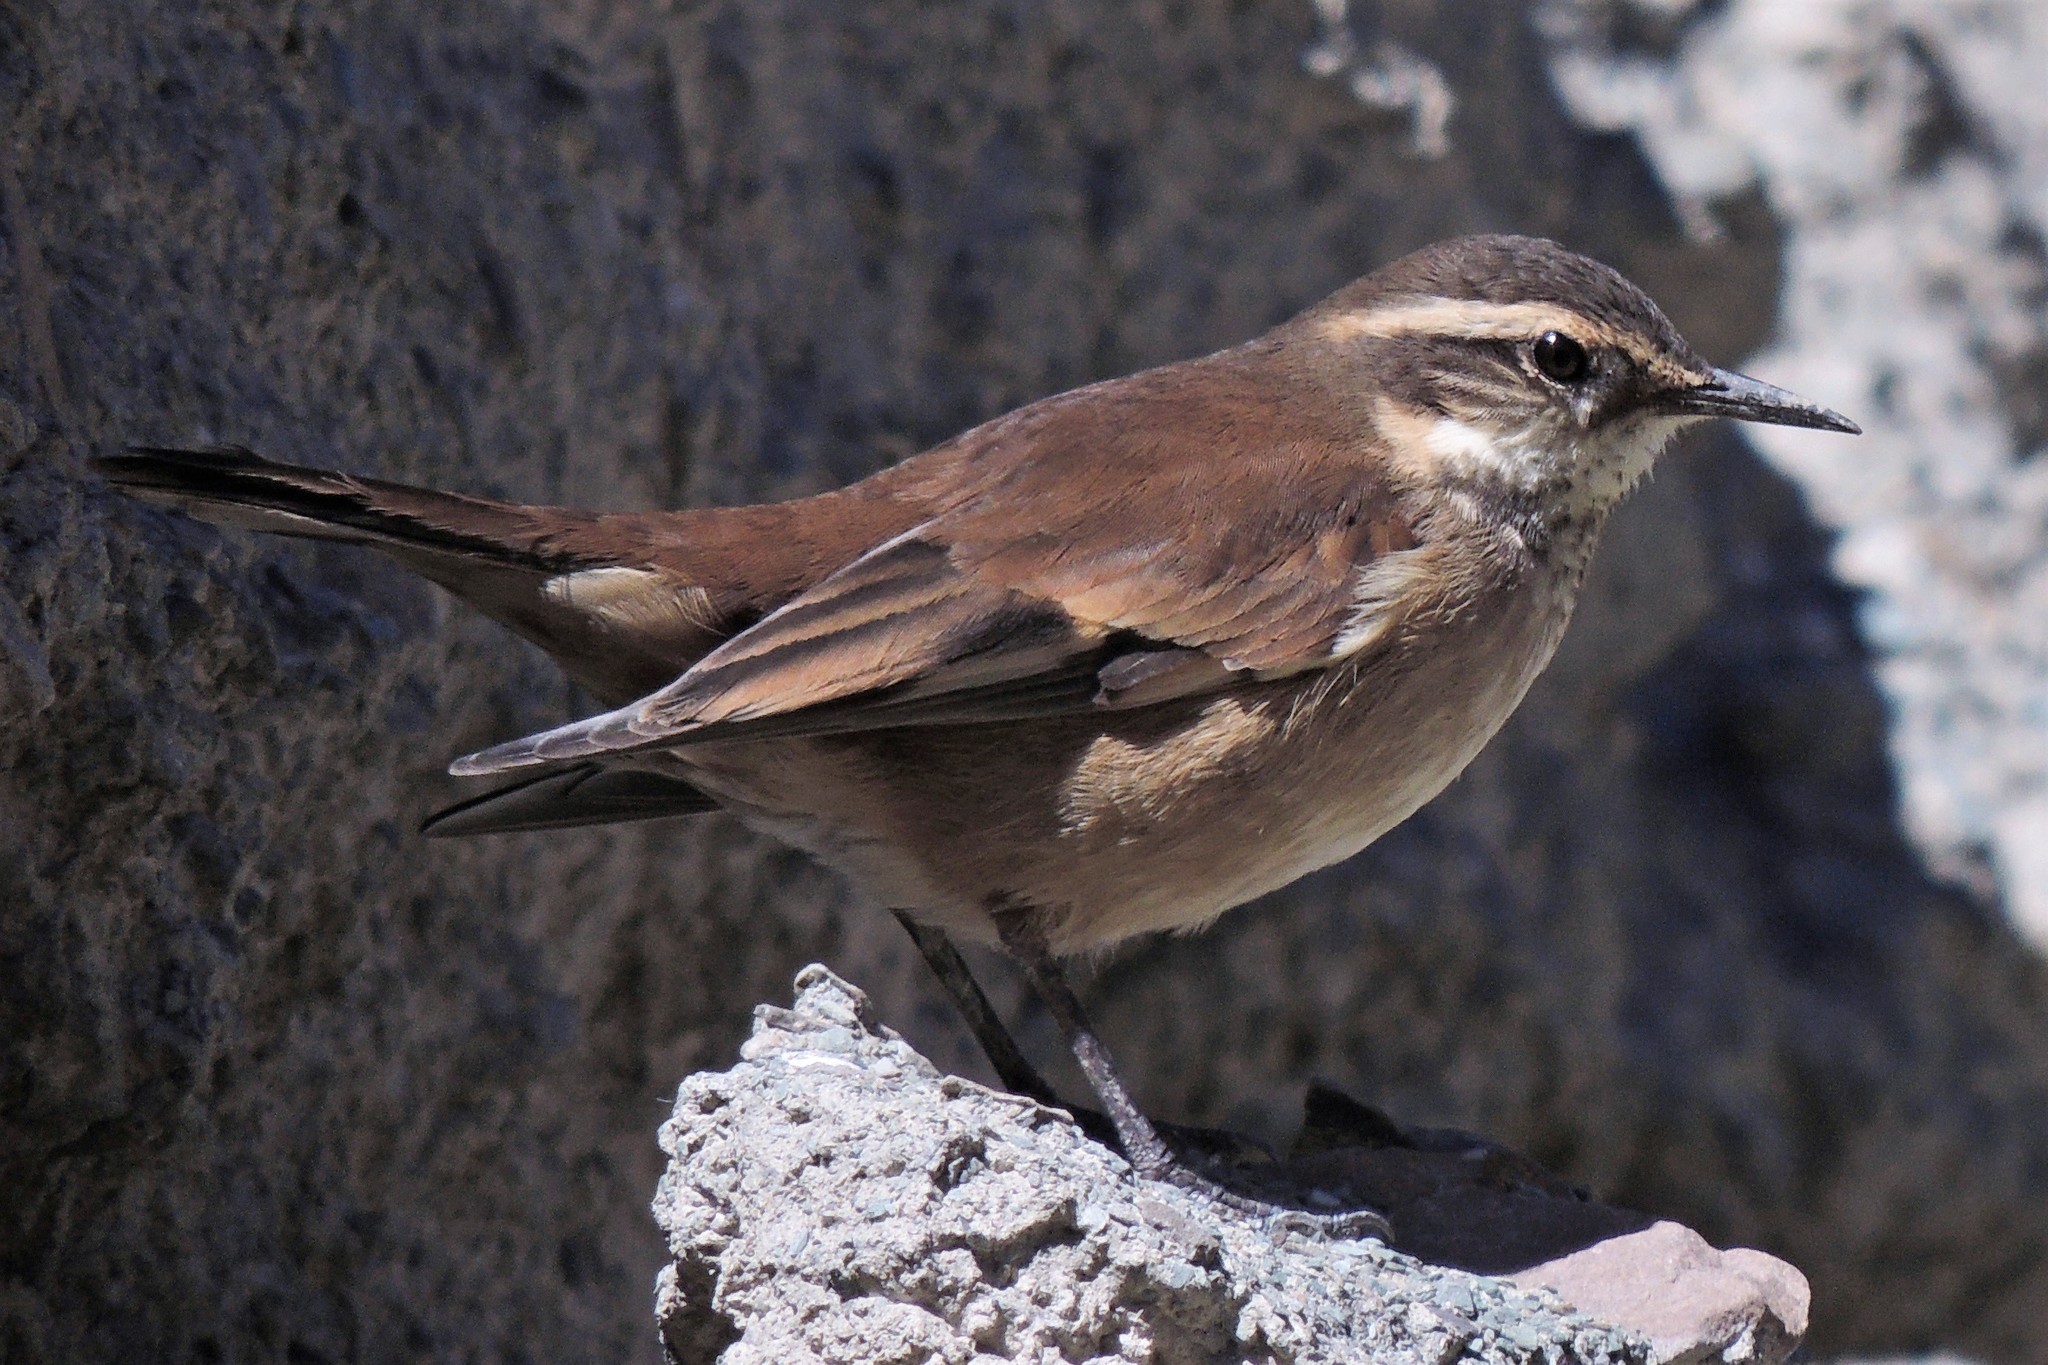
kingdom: Animalia
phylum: Chordata
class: Aves
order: Passeriformes
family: Furnariidae
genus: Cinclodes
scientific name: Cinclodes fuscus
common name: Buff-winged cinclodes
